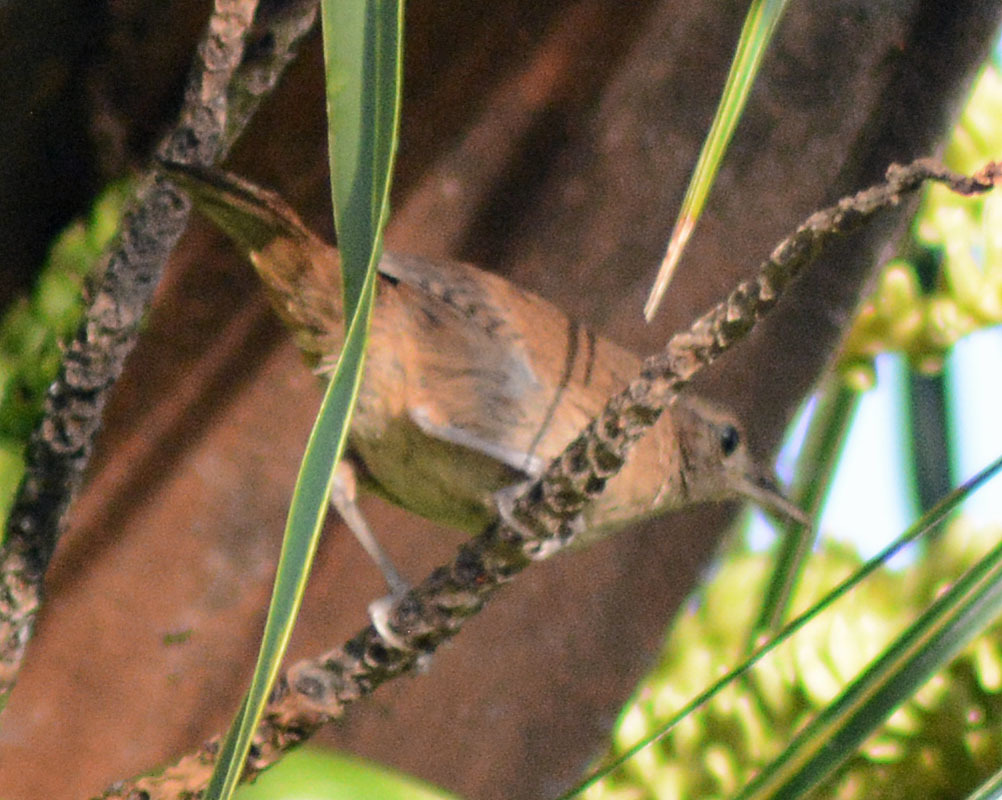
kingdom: Animalia
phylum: Chordata
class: Aves
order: Passeriformes
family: Troglodytidae
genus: Troglodytes
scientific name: Troglodytes aedon
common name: House wren
